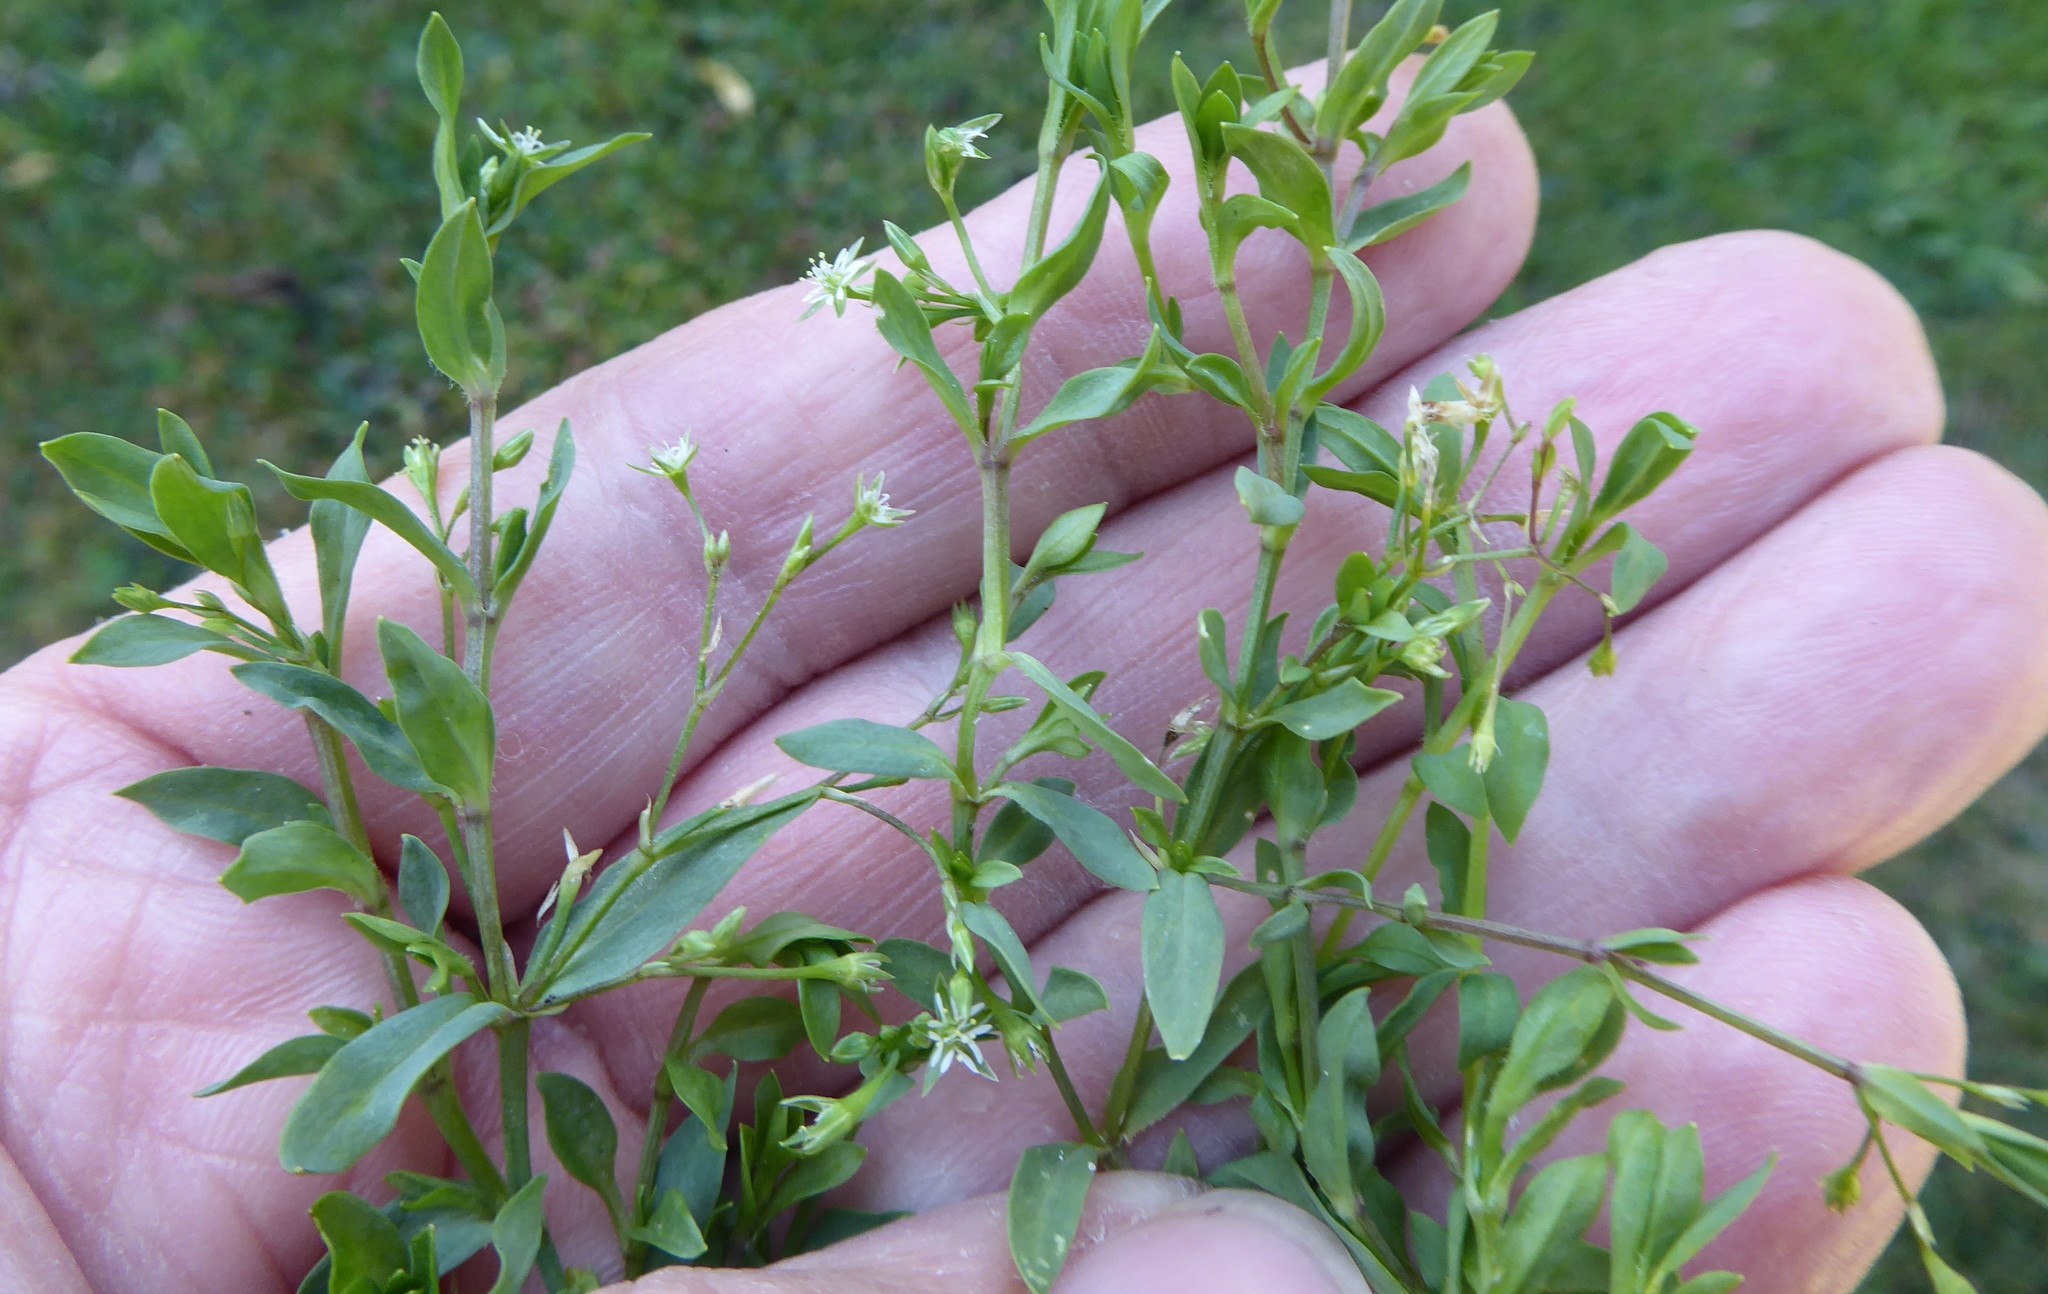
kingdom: Plantae
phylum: Tracheophyta
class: Magnoliopsida
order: Caryophyllales
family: Caryophyllaceae
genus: Stellaria
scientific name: Stellaria alsine
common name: Bog stitchwort
